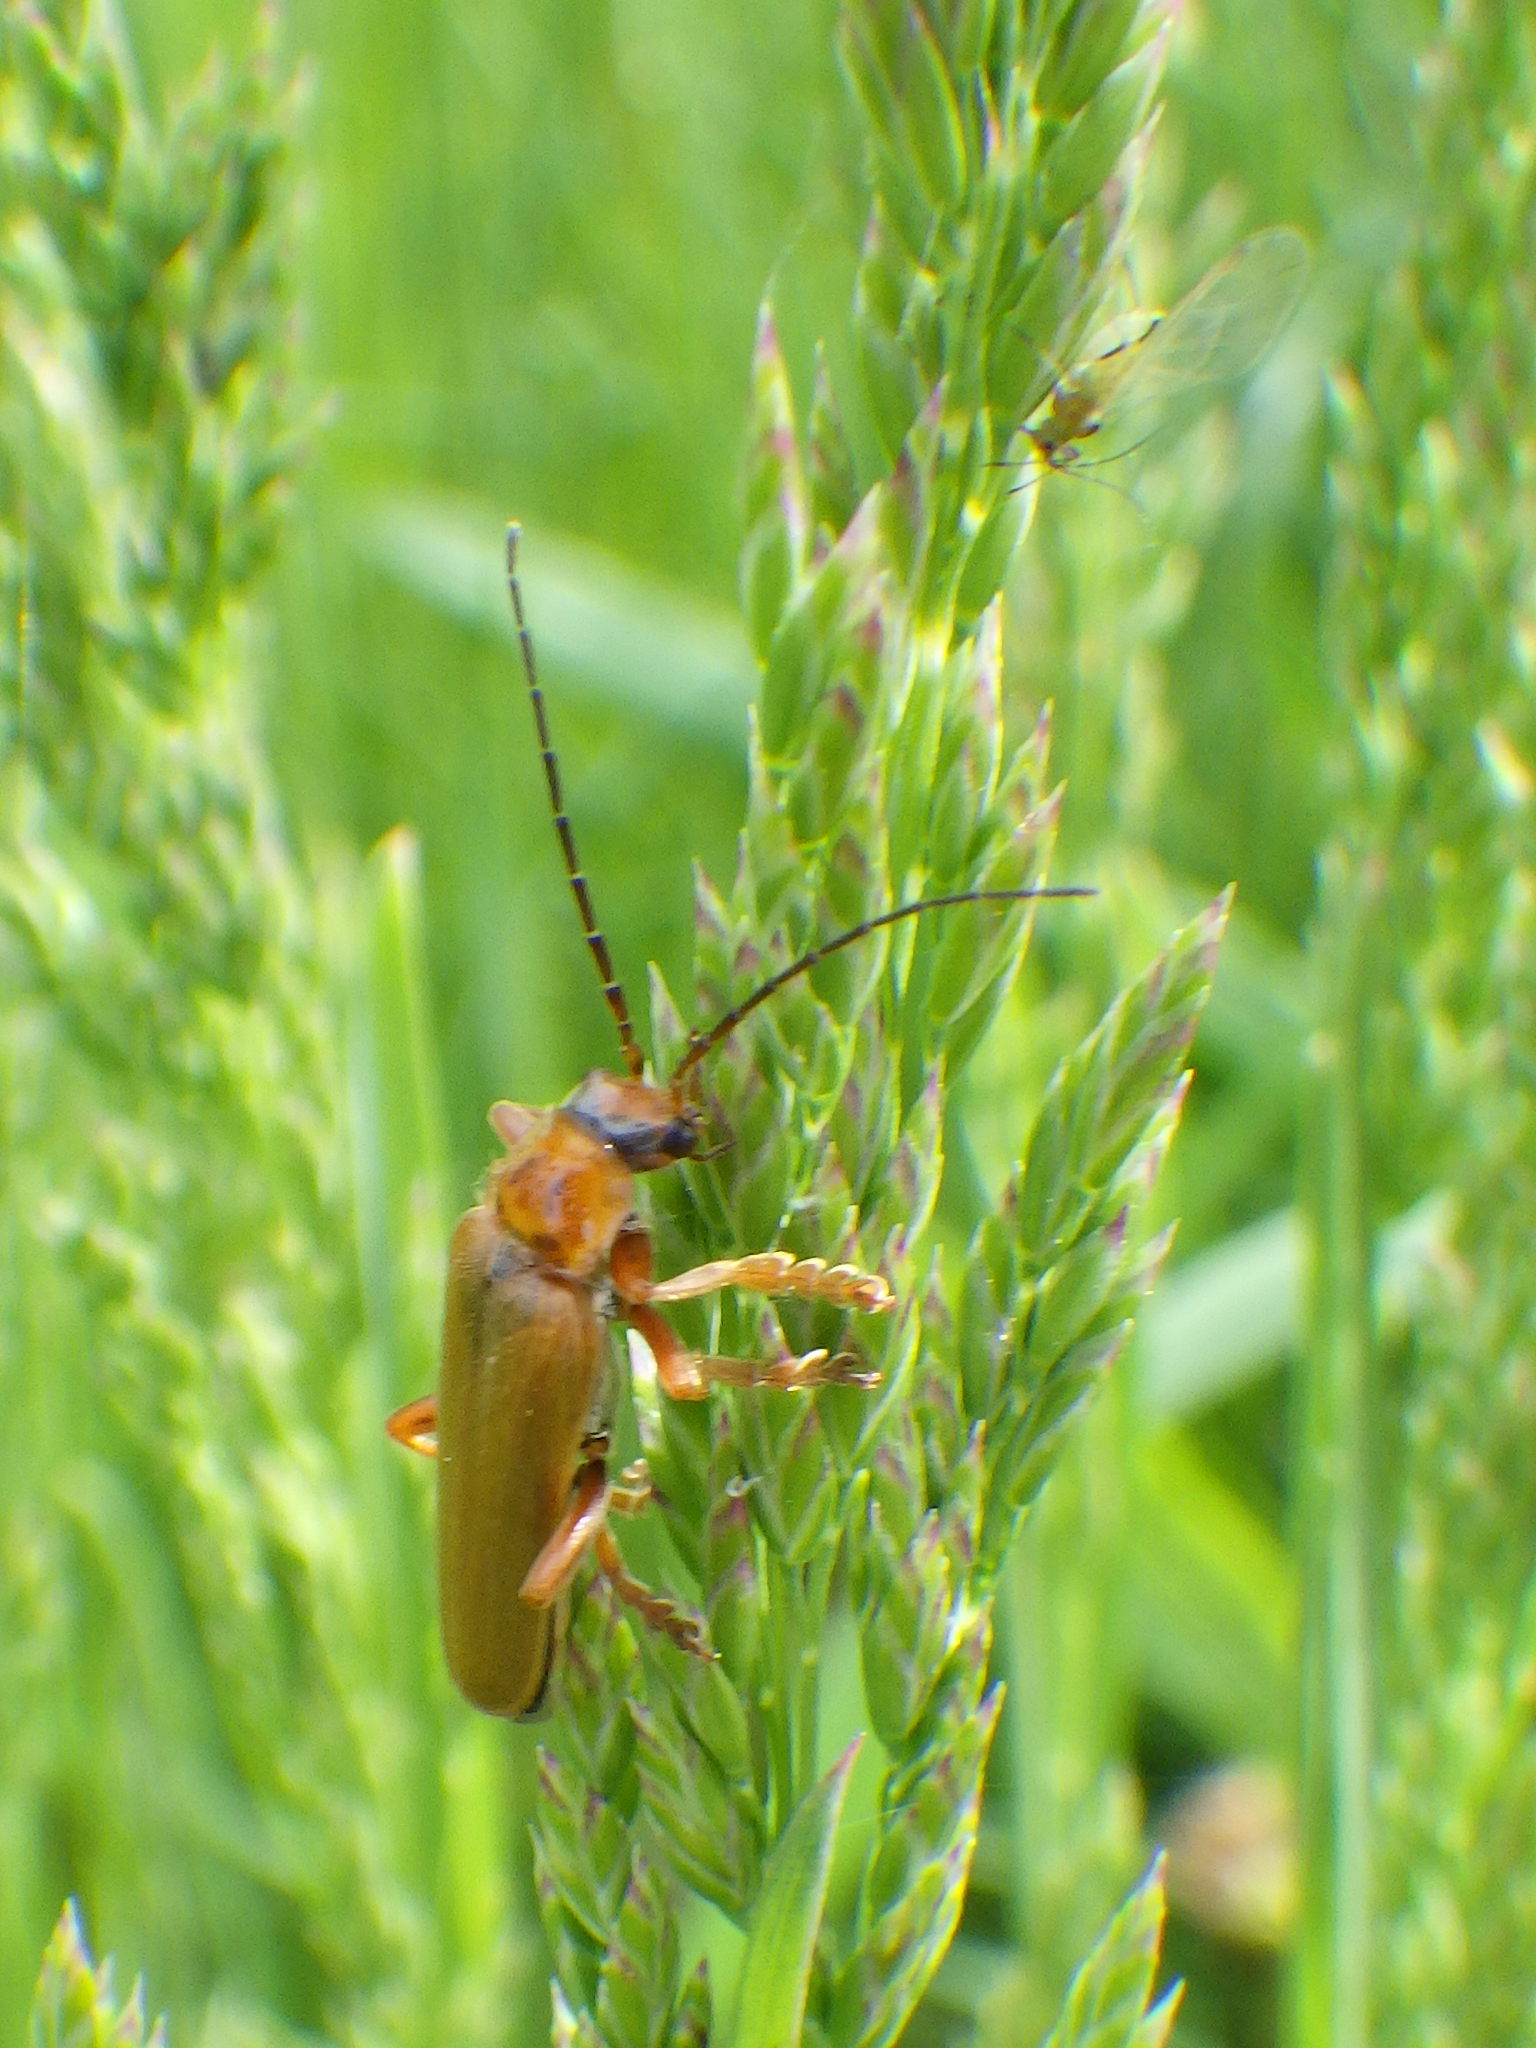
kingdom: Animalia
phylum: Arthropoda
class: Insecta
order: Coleoptera
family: Cantharidae
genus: Cantharis
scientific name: Cantharis rufa
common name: Red-spotted soldier beetle
